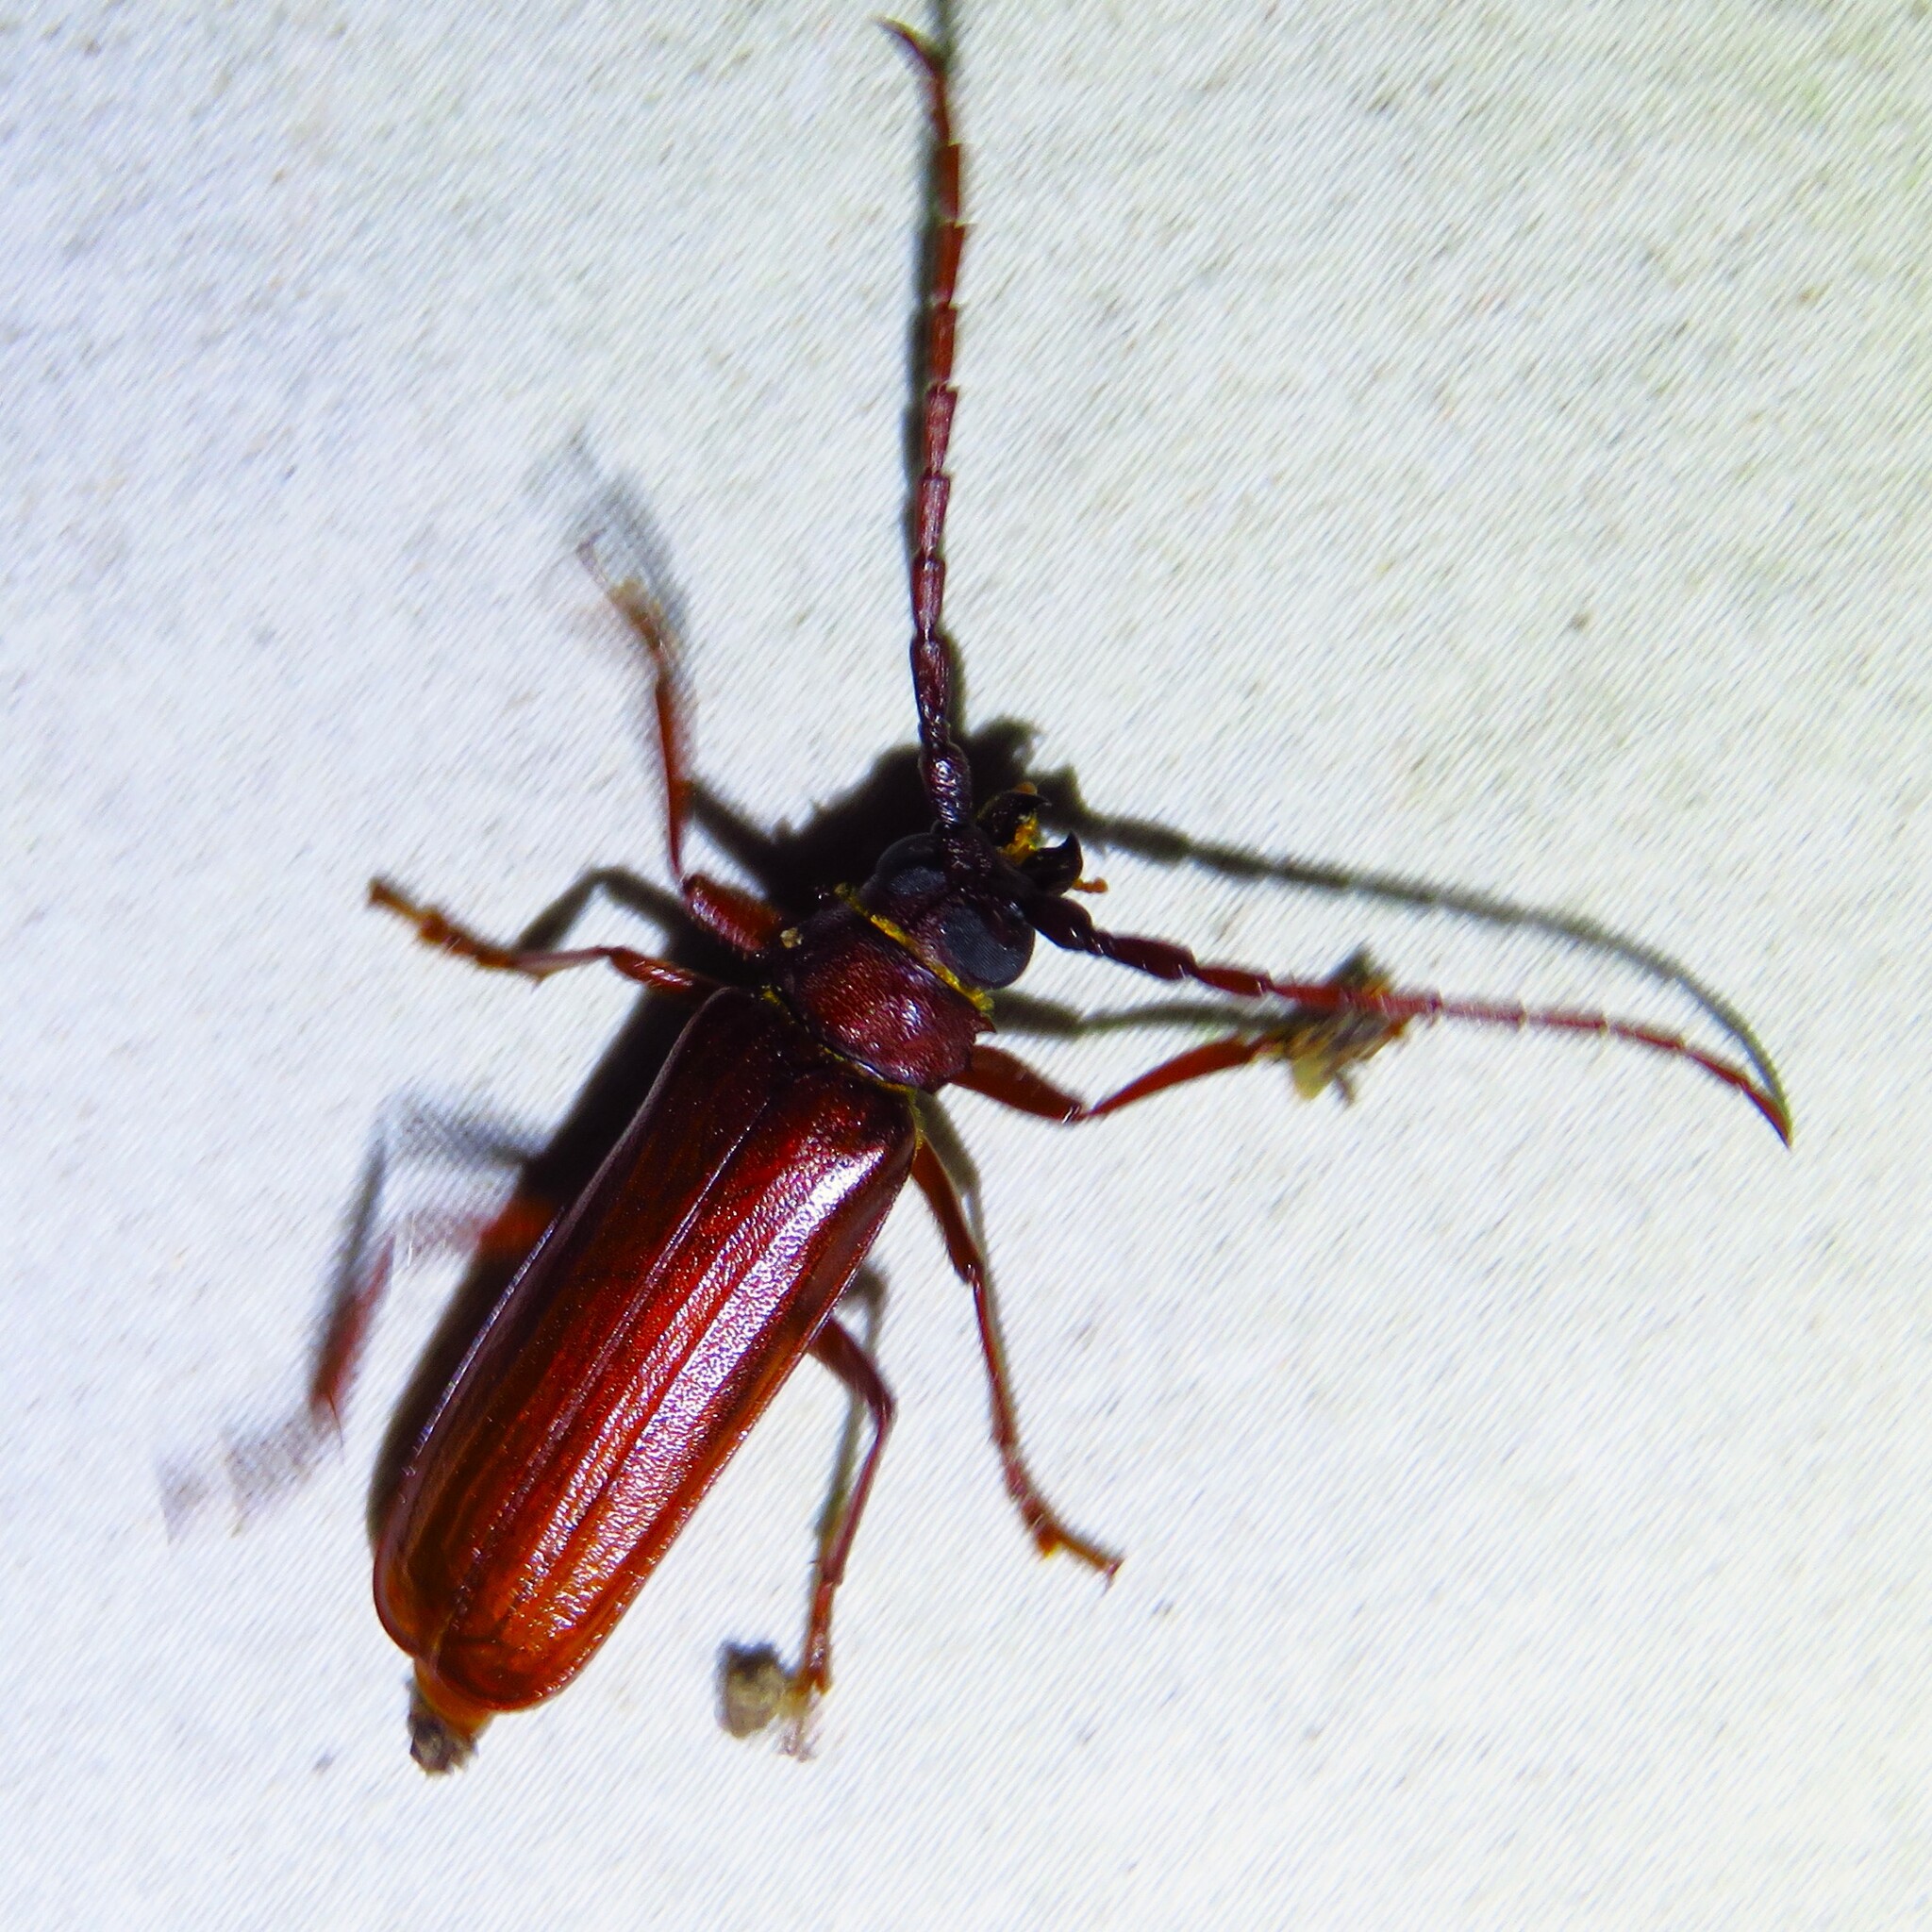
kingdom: Animalia
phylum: Arthropoda
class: Insecta
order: Coleoptera
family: Cerambycidae
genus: Orthosoma
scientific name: Orthosoma brunneum
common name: Brown prionid beetle
